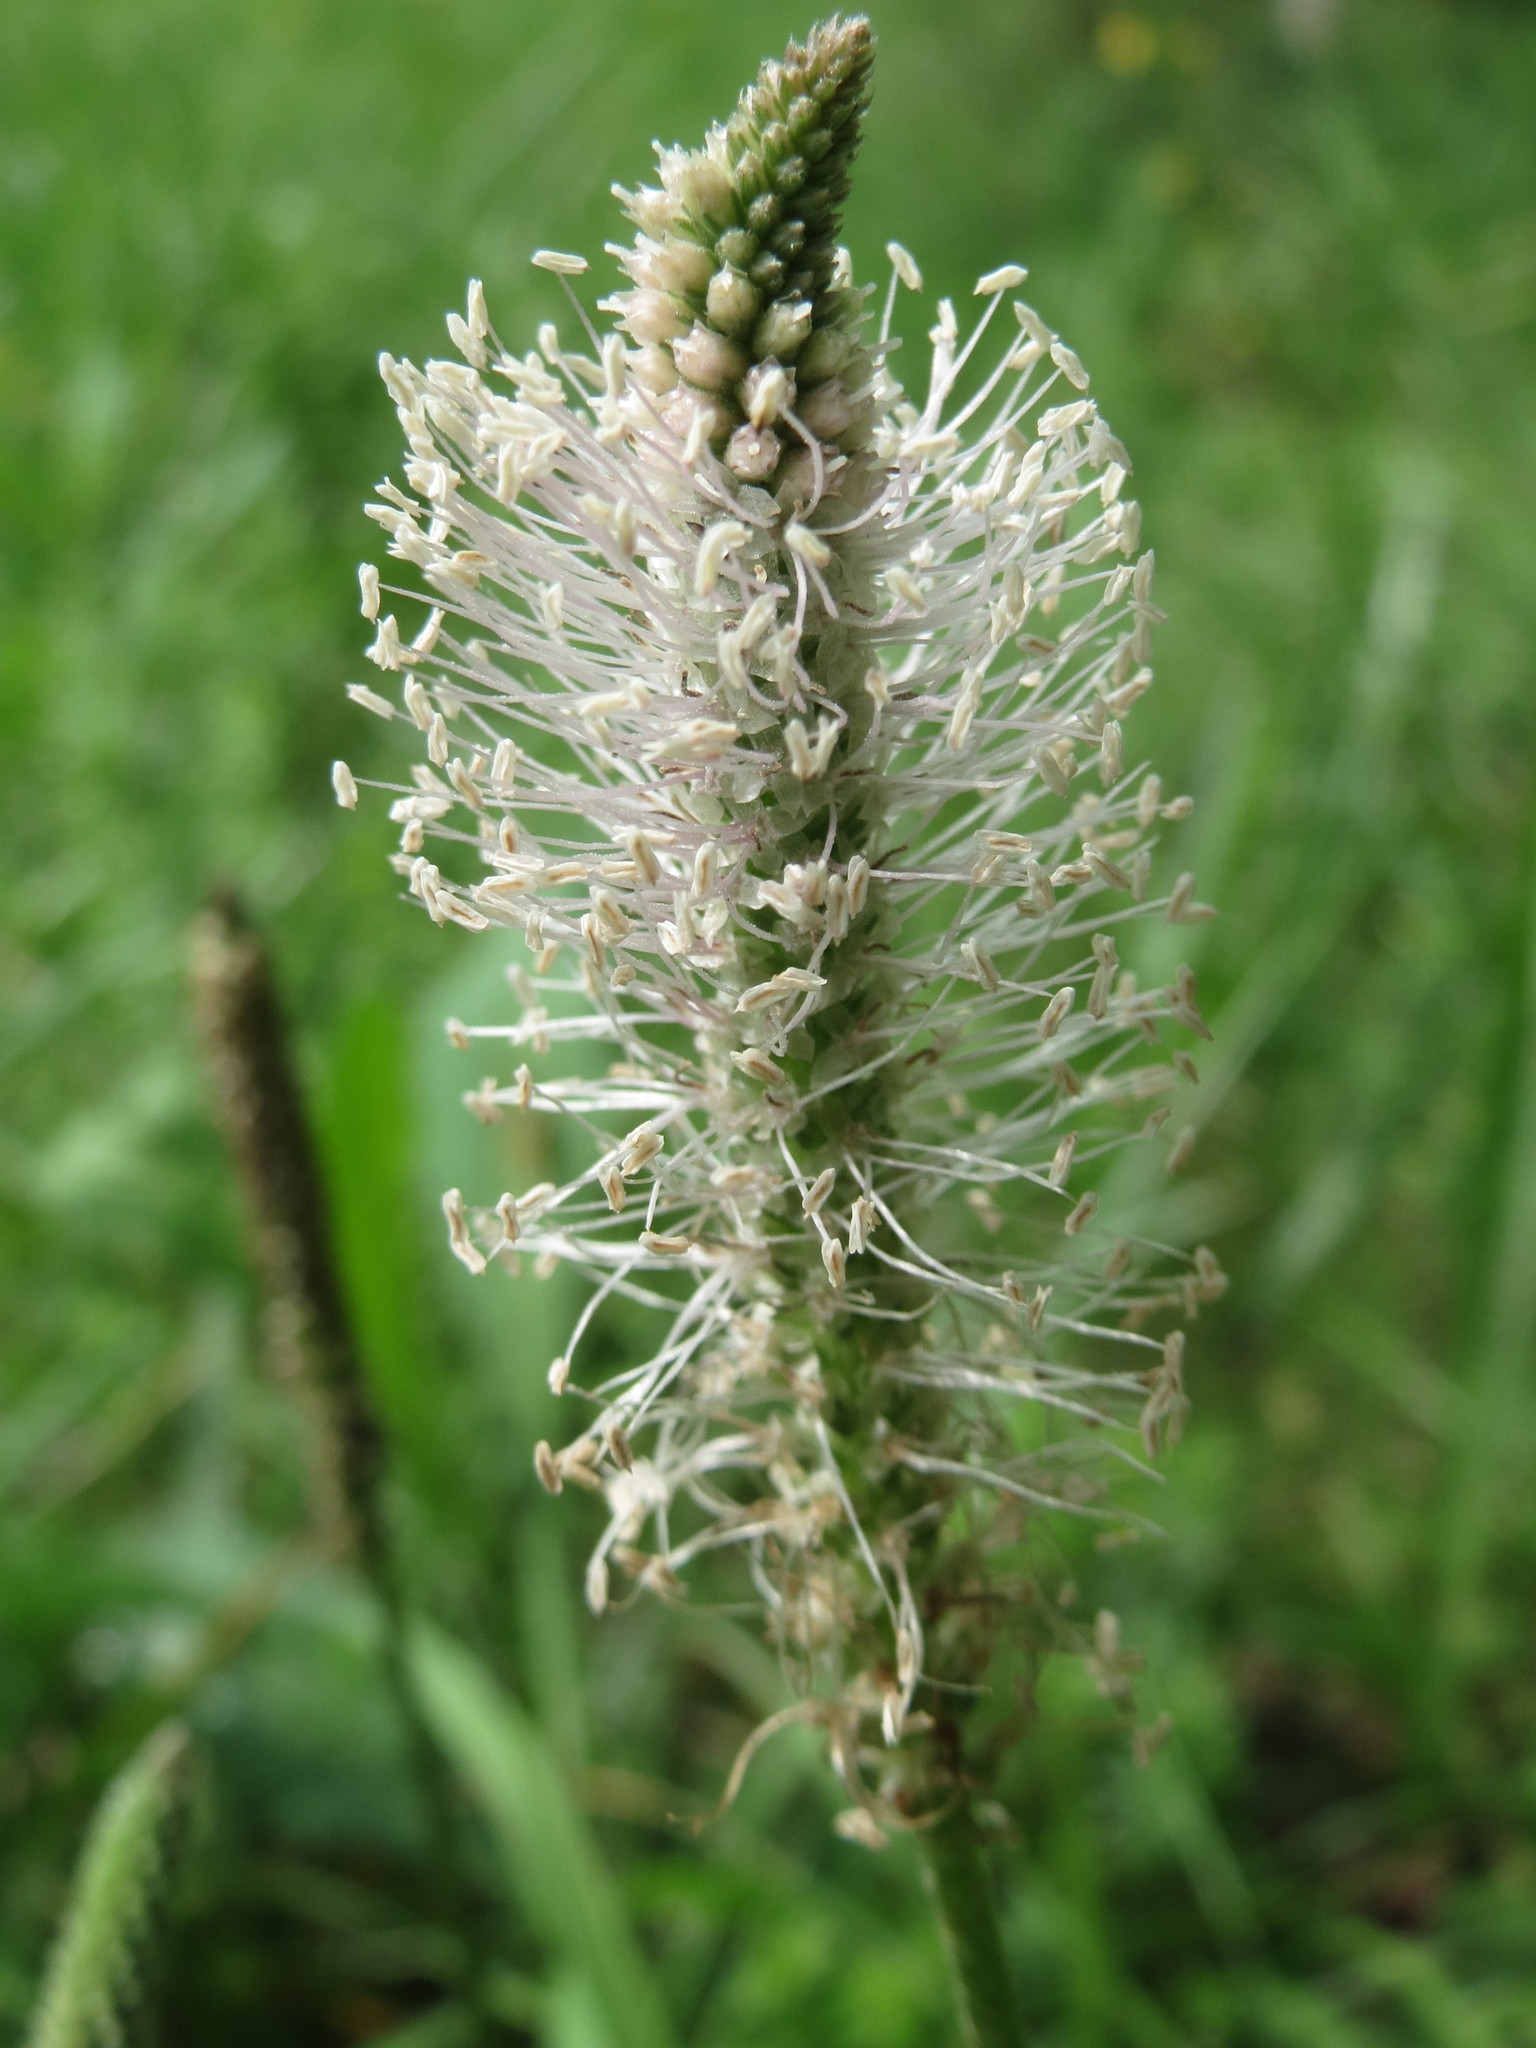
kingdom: Plantae
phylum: Tracheophyta
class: Magnoliopsida
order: Lamiales
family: Plantaginaceae
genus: Plantago
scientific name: Plantago media
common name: Hoary plantain
